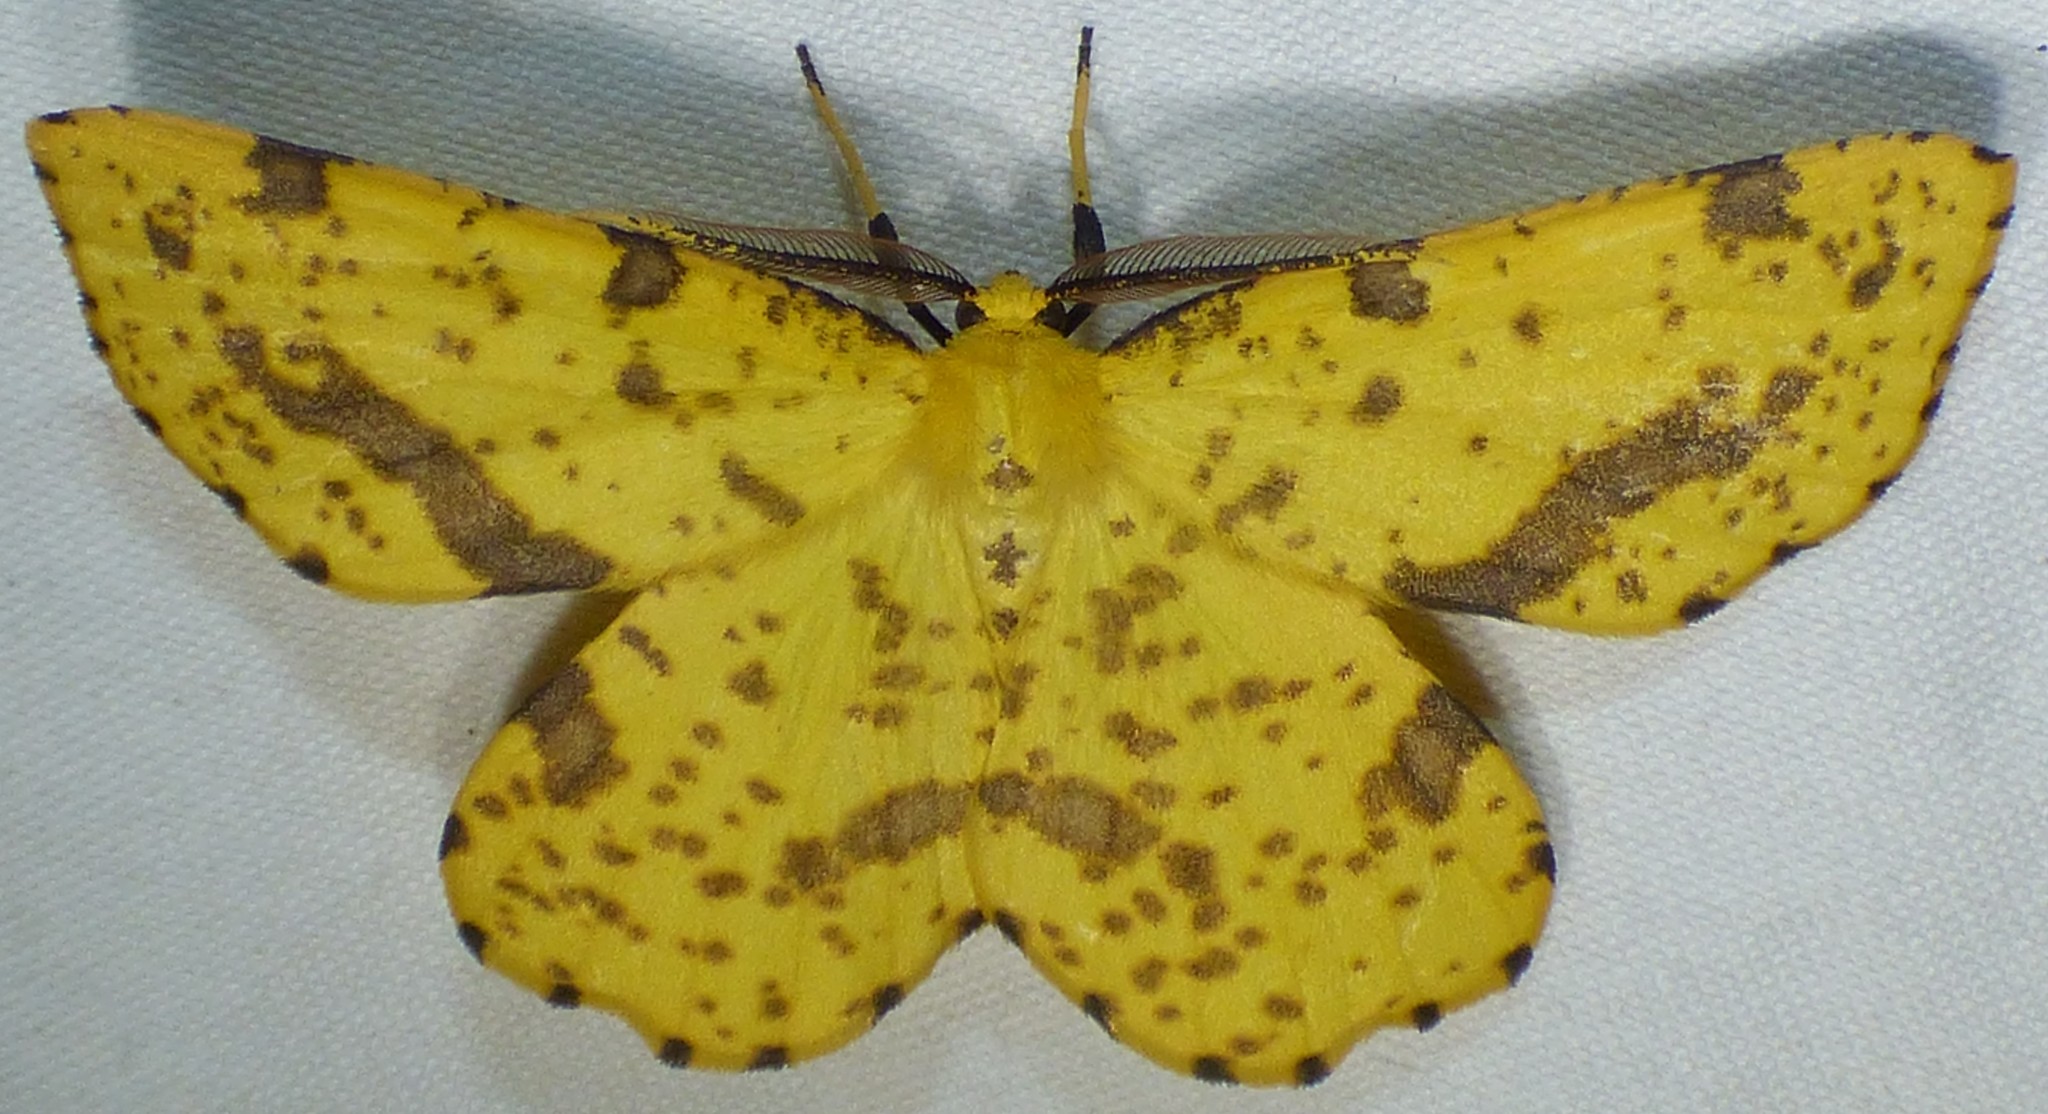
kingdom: Animalia
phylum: Arthropoda
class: Insecta
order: Lepidoptera
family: Geometridae
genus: Xanthotype
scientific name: Xanthotype
